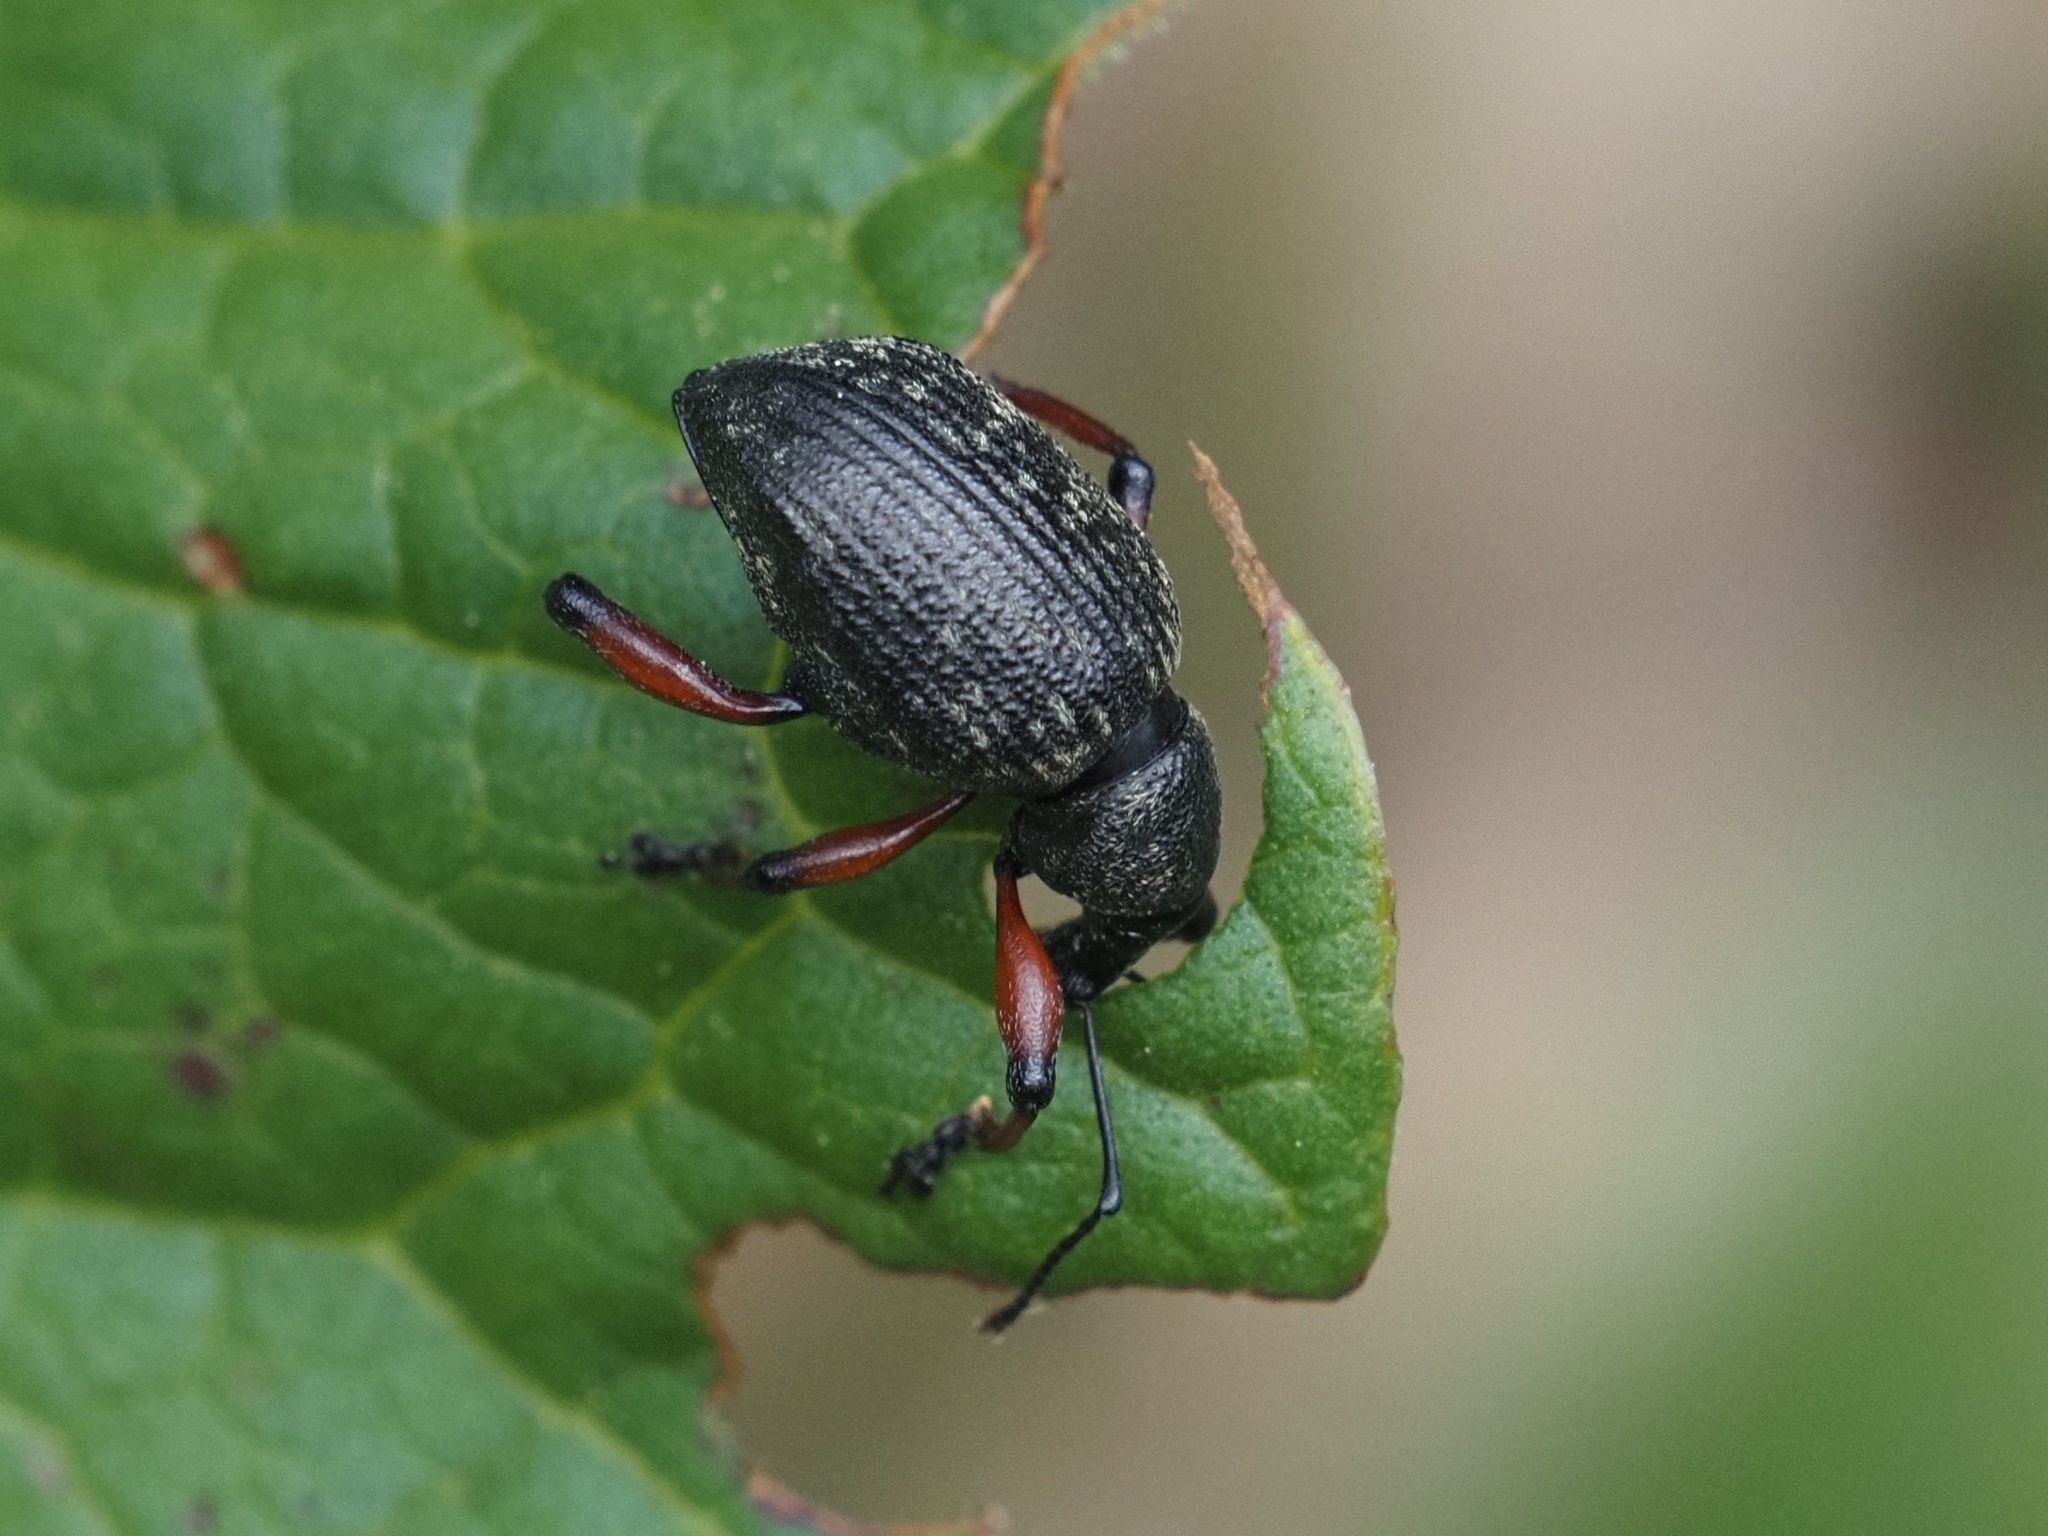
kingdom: Animalia
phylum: Arthropoda
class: Insecta
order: Coleoptera
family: Curculionidae
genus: Dodecastichus
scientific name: Dodecastichus geniculatus
